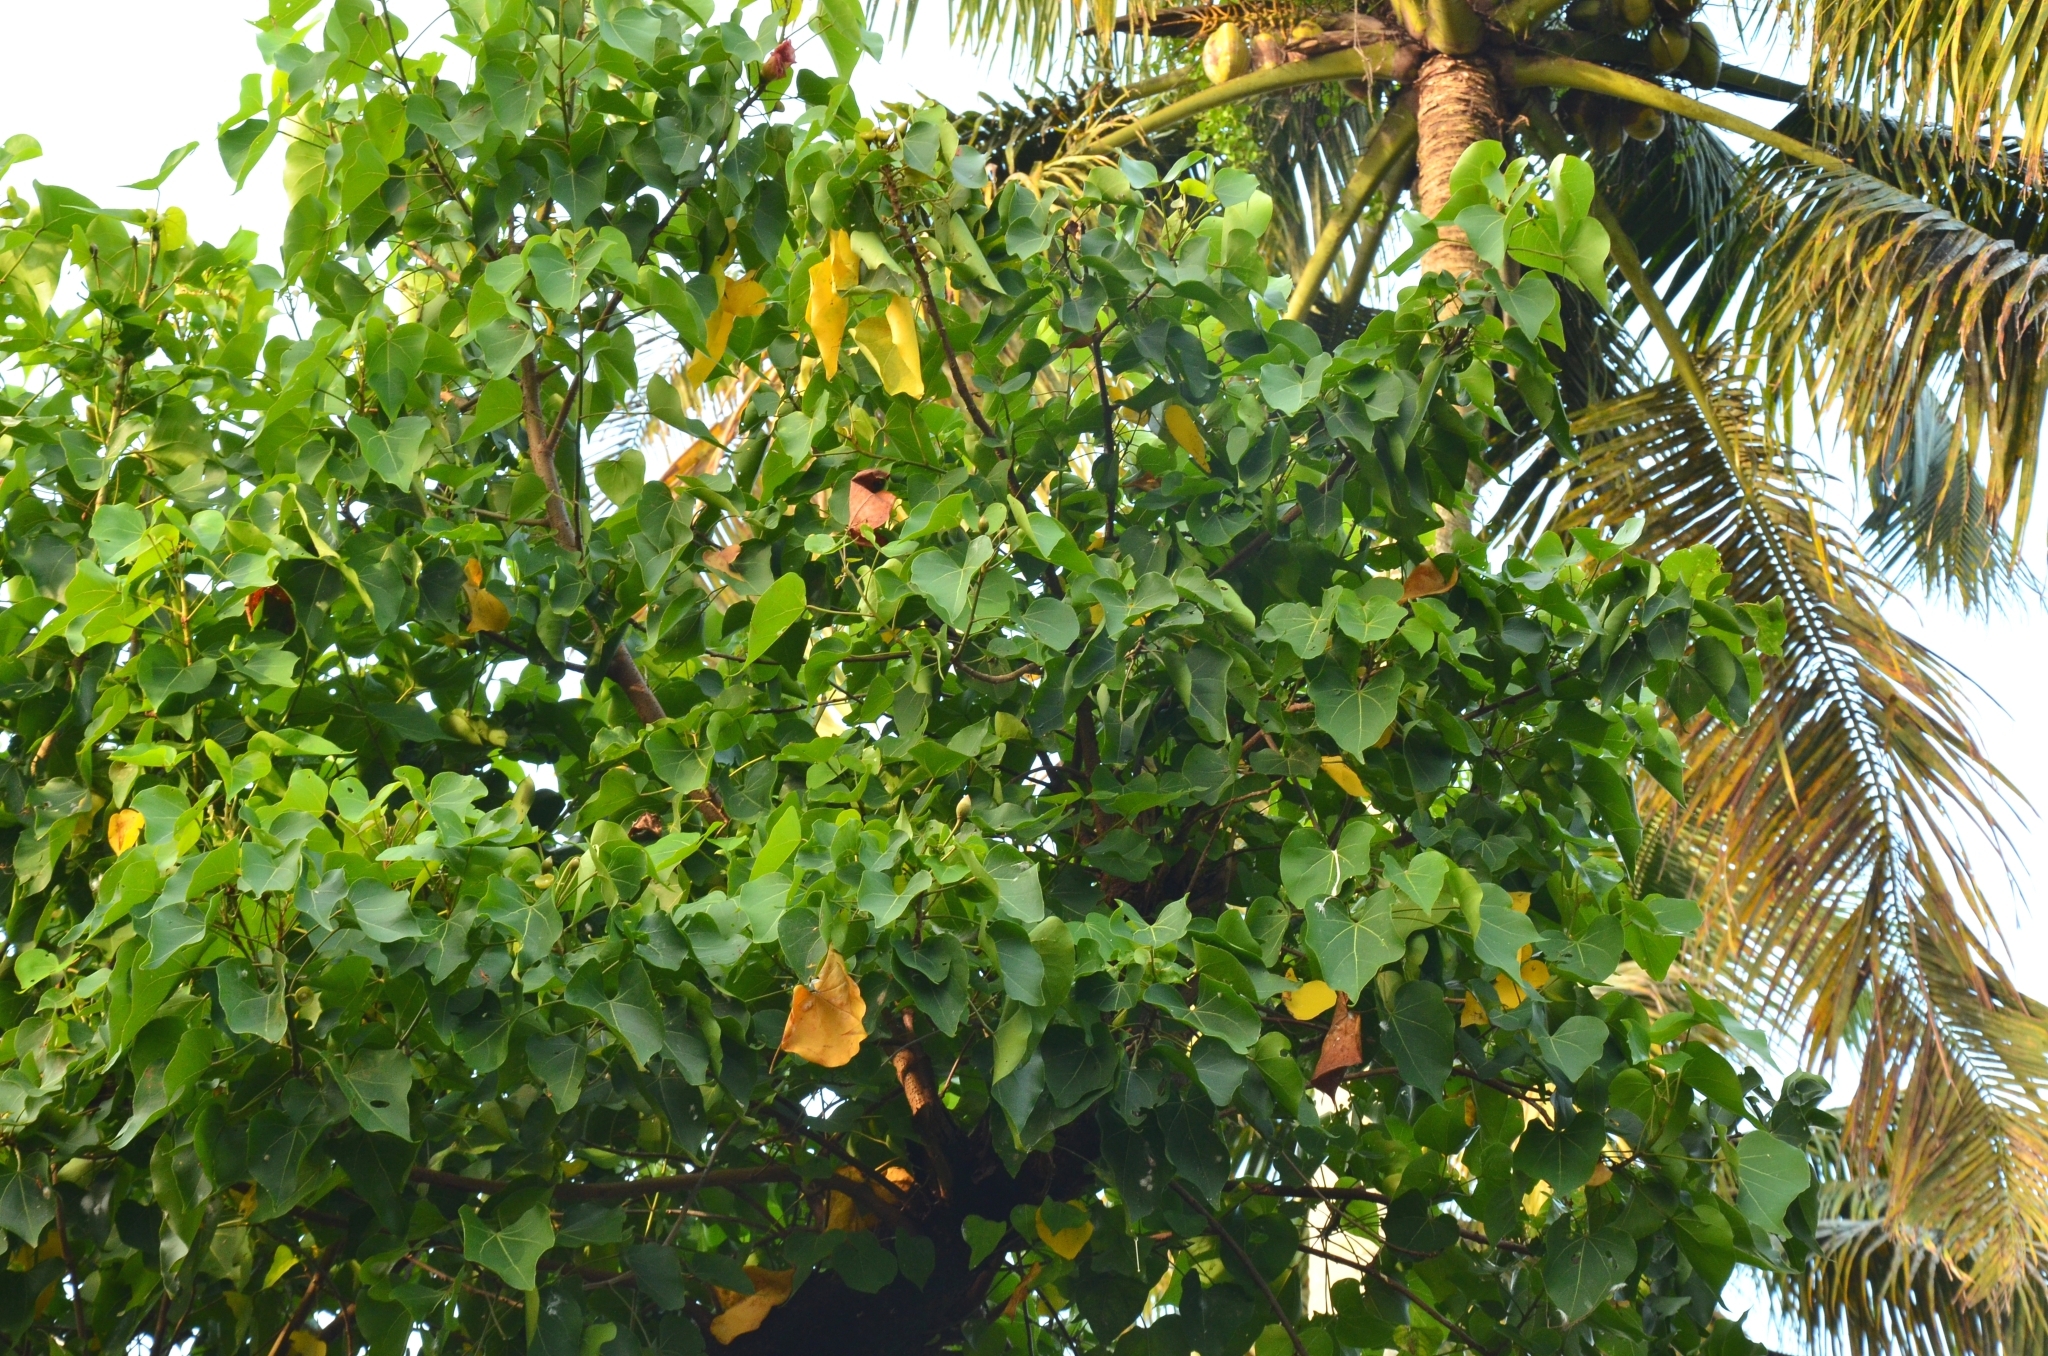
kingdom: Plantae
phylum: Tracheophyta
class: Magnoliopsida
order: Malvales
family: Malvaceae
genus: Thespesia
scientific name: Thespesia populnea
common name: Seaside mahoe
